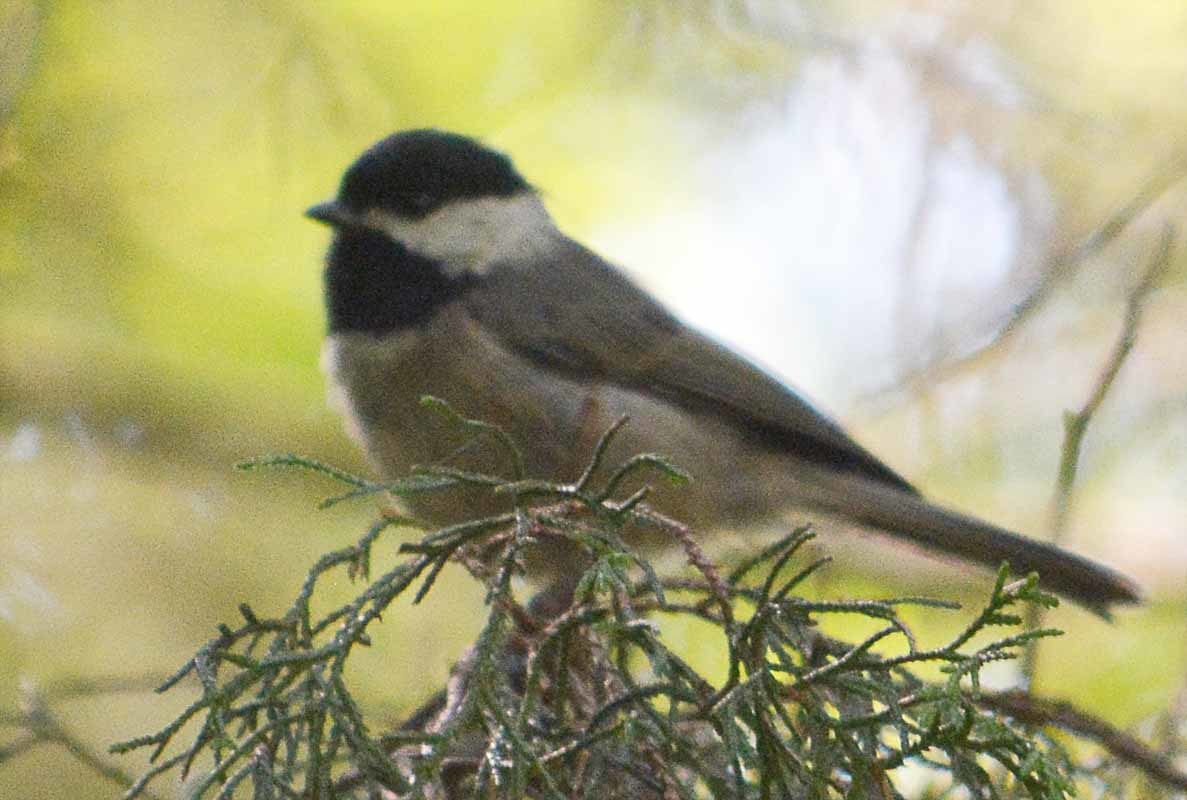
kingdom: Animalia
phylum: Chordata
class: Aves
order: Passeriformes
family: Paridae
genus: Poecile
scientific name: Poecile sclateri
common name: Mexican chickadee
